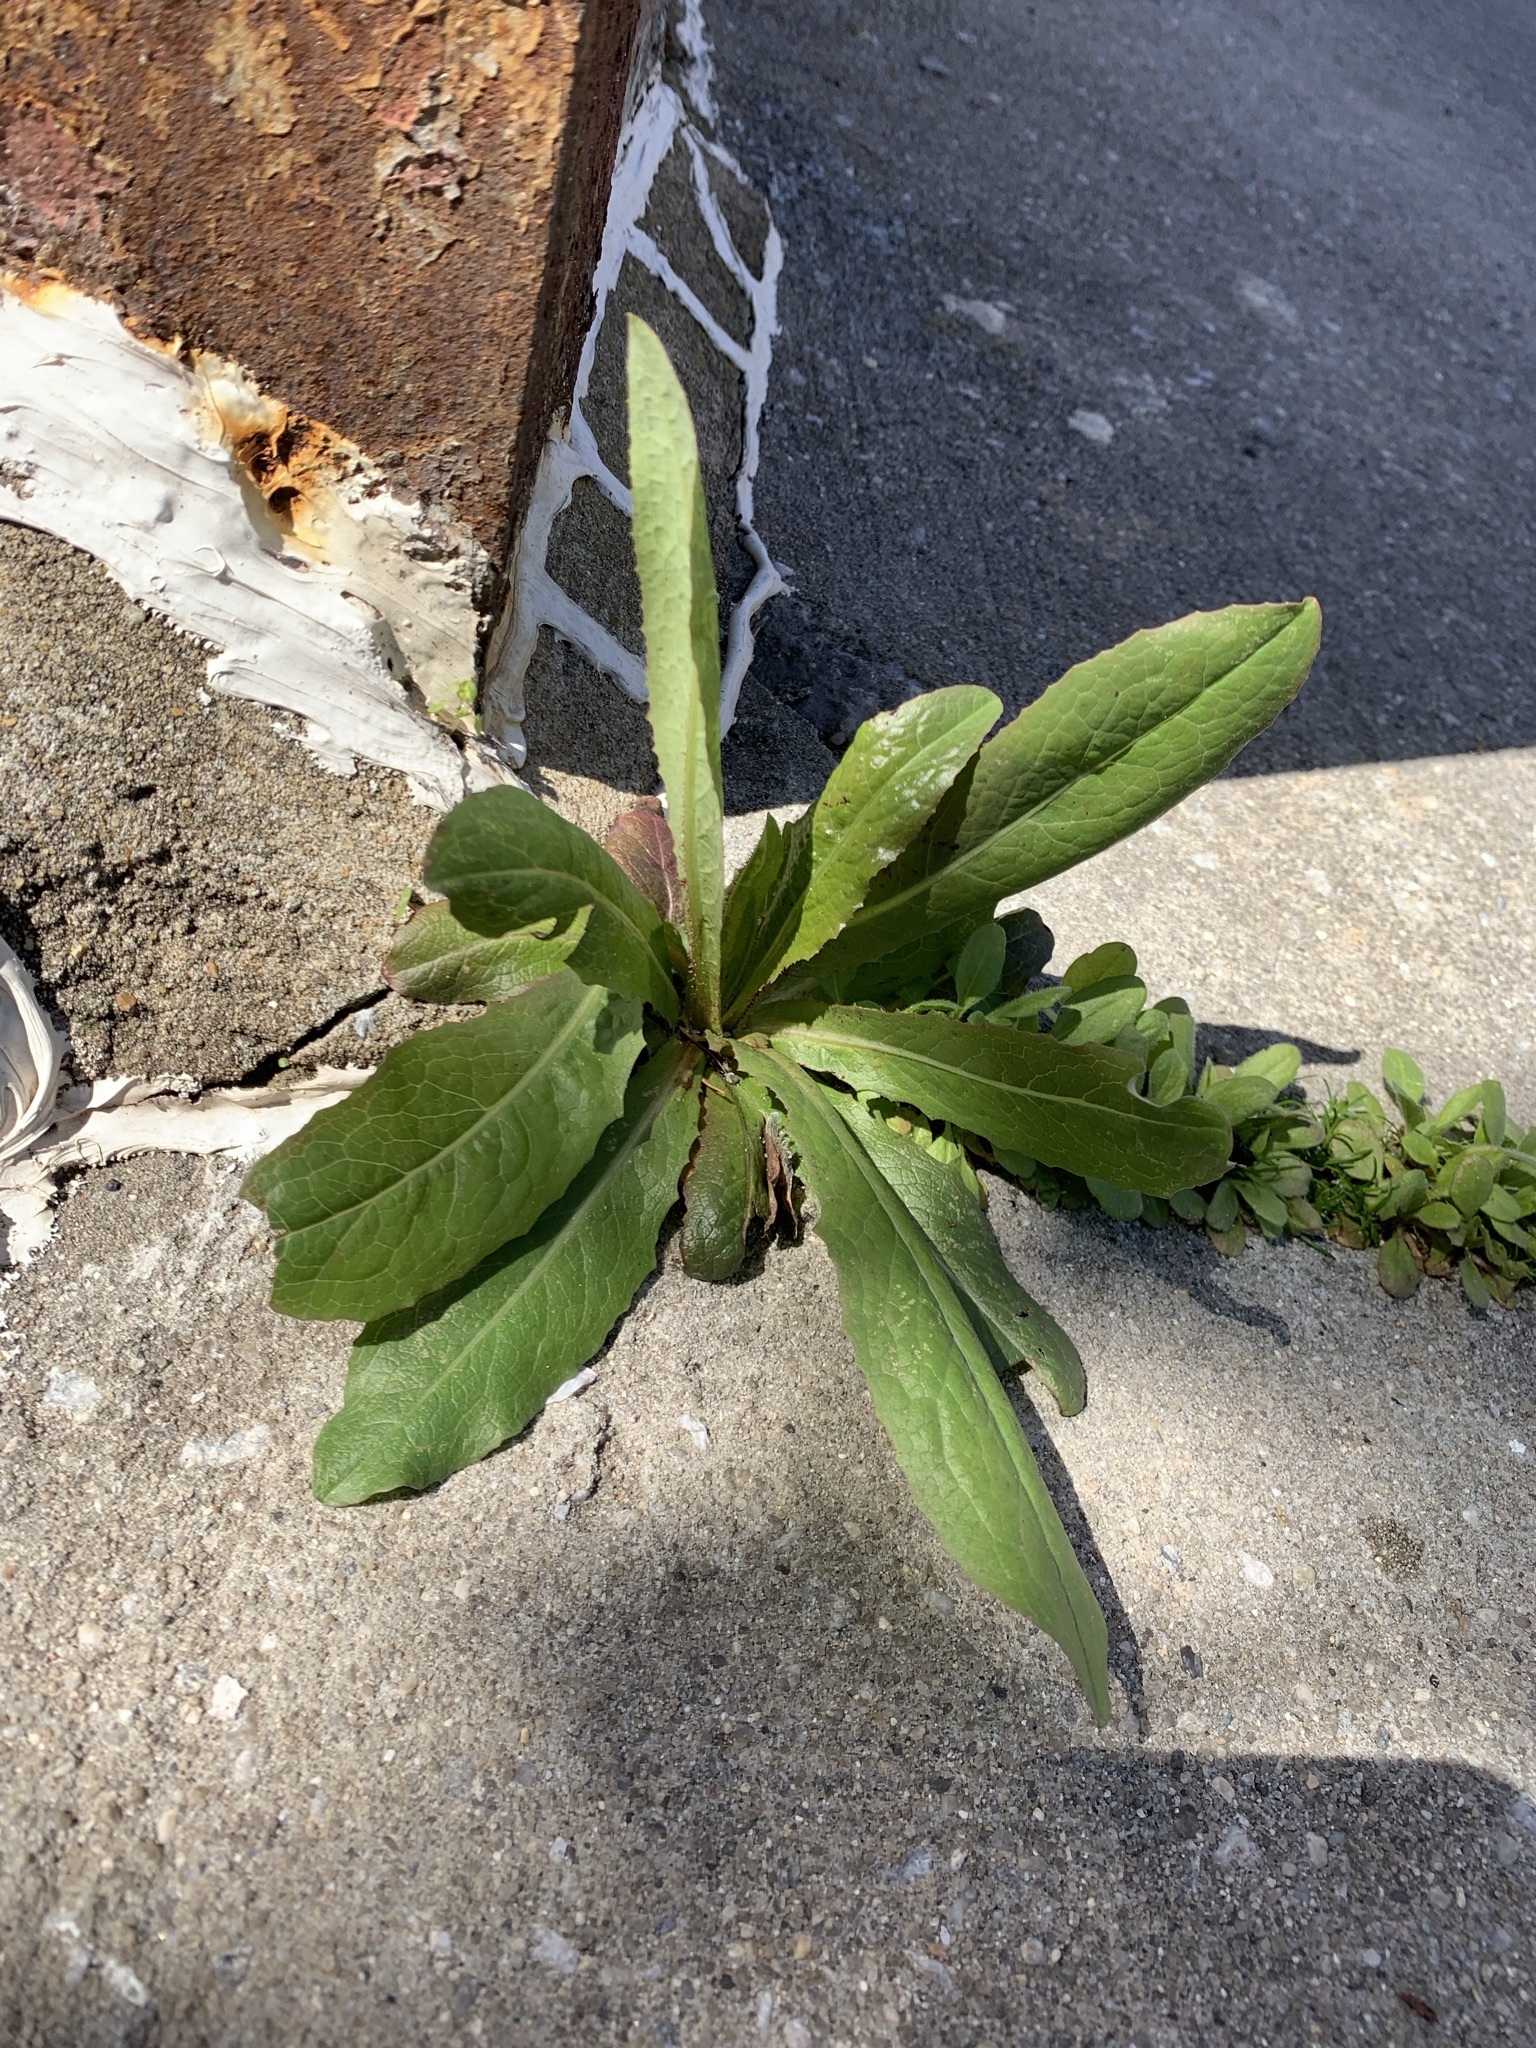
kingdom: Plantae
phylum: Tracheophyta
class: Magnoliopsida
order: Asterales
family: Asteraceae
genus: Lactuca
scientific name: Lactuca serriola
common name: Prickly lettuce
